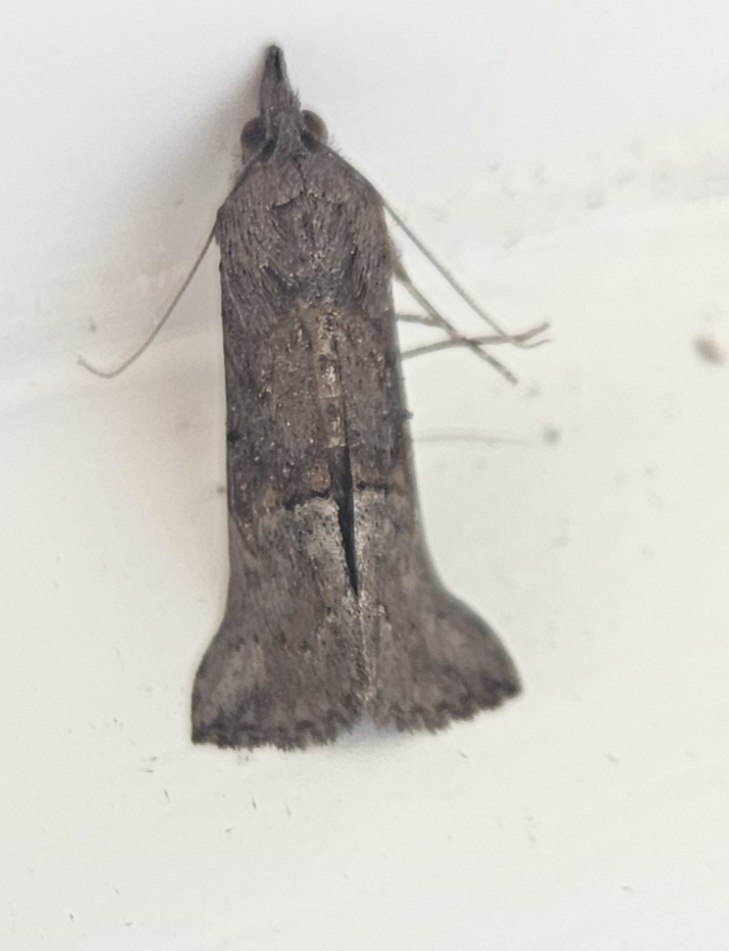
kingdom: Animalia
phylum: Arthropoda
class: Insecta
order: Lepidoptera
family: Erebidae
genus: Hypena
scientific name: Hypena scabra
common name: Green cloverworm
